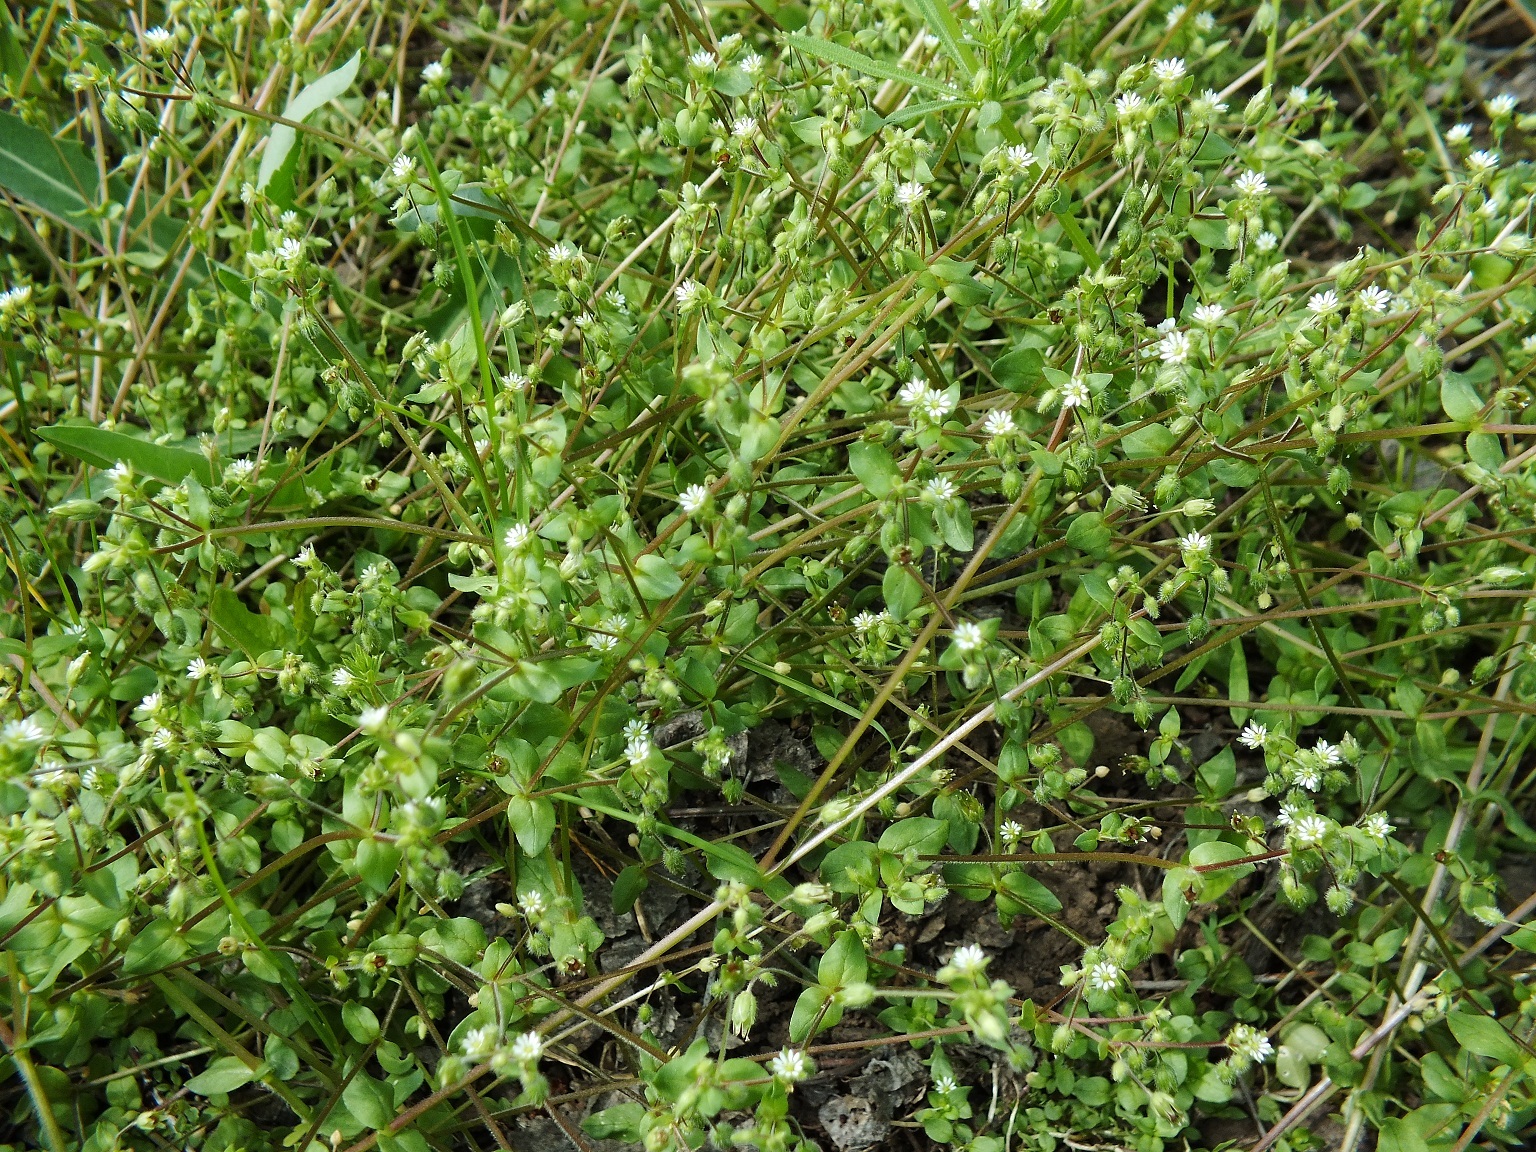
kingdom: Plantae
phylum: Tracheophyta
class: Magnoliopsida
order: Caryophyllales
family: Caryophyllaceae
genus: Stellaria
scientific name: Stellaria media
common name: Common chickweed
